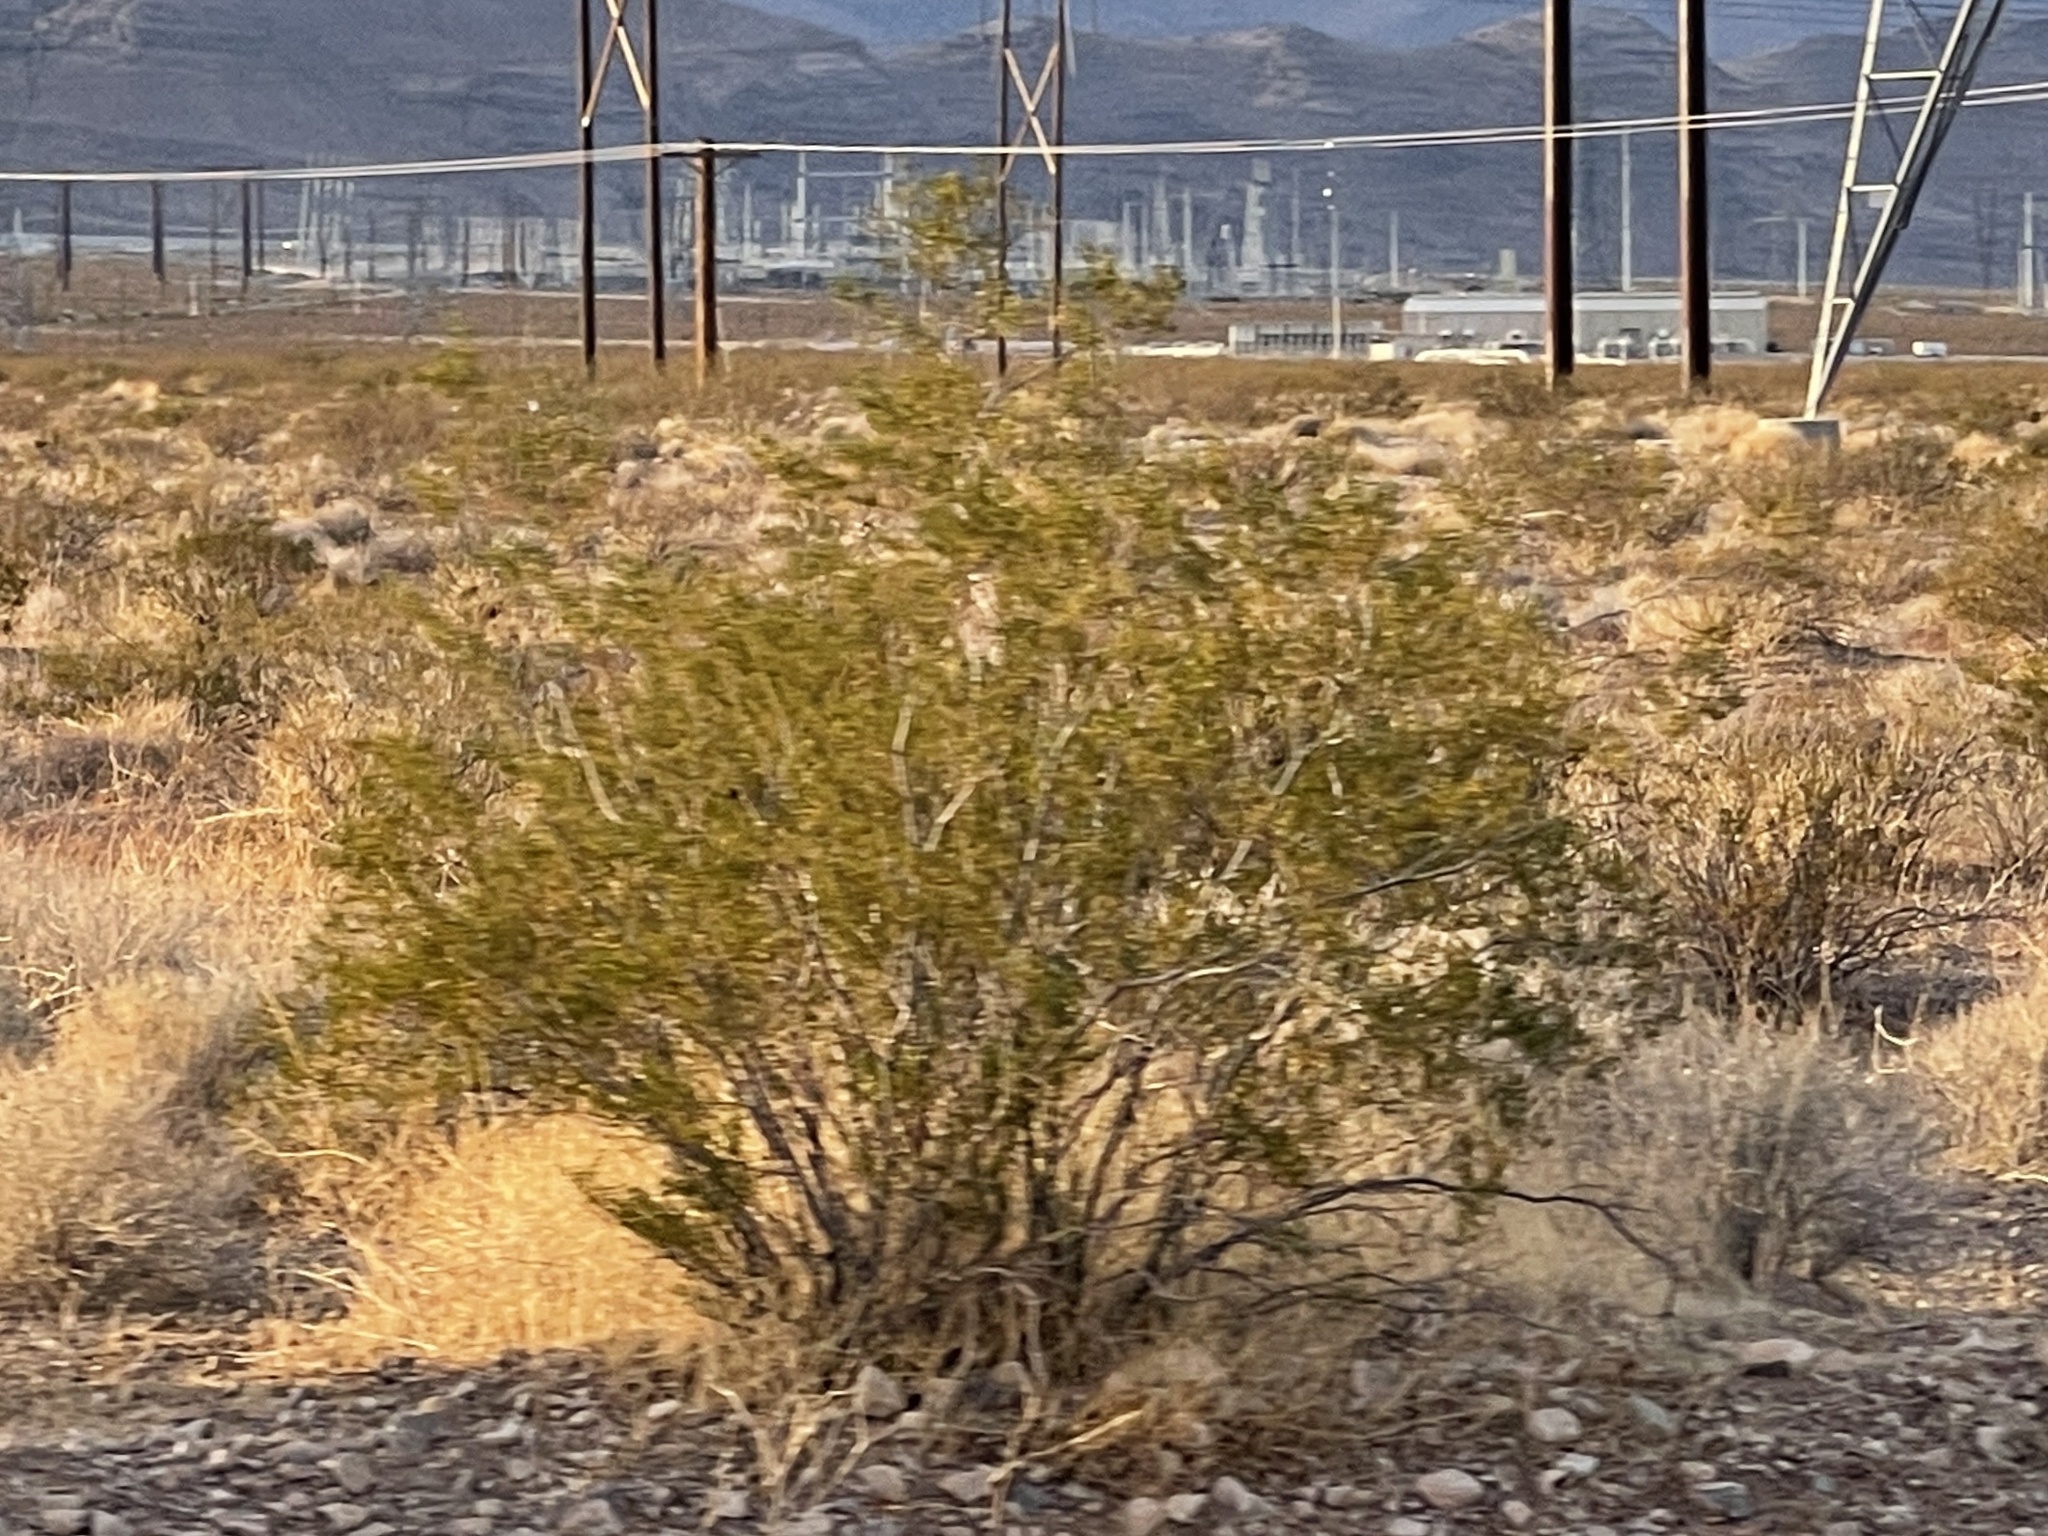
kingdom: Plantae
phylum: Tracheophyta
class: Magnoliopsida
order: Zygophyllales
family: Zygophyllaceae
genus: Larrea
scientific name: Larrea tridentata
